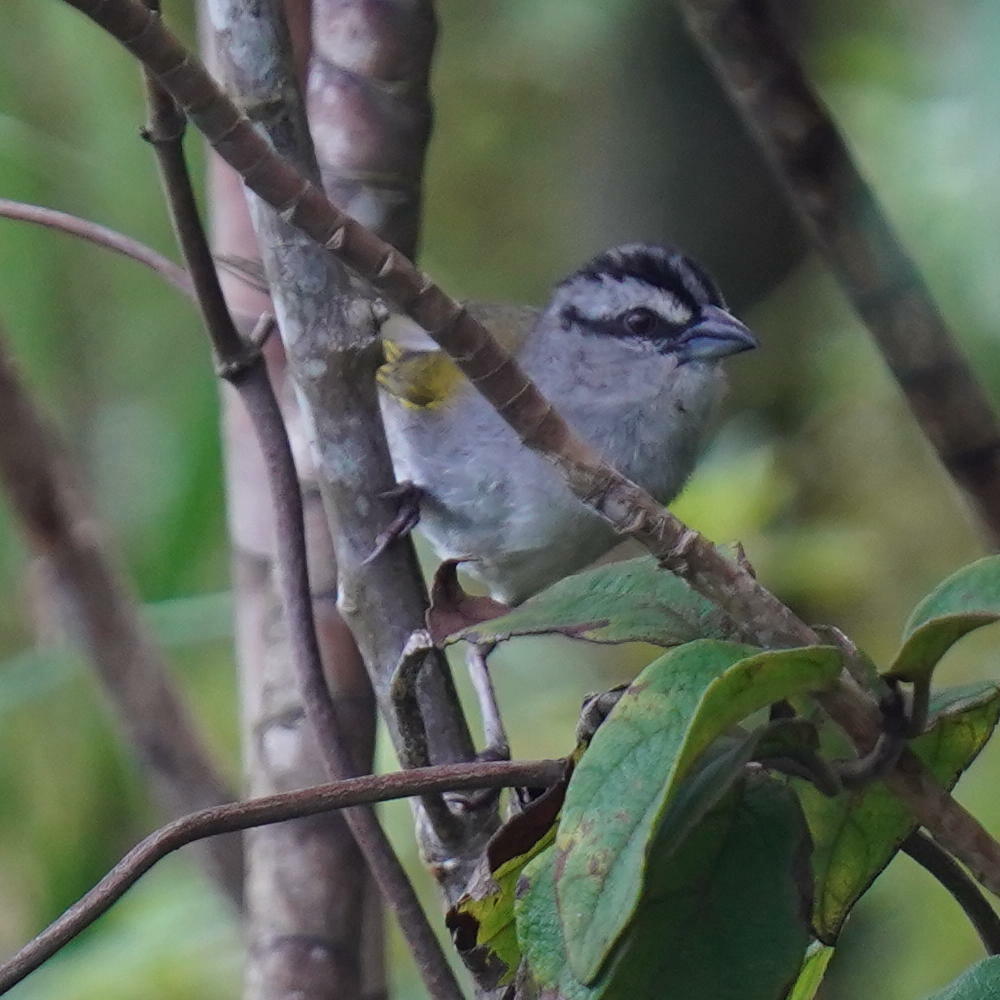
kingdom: Animalia
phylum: Chordata
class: Aves
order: Passeriformes
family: Passerellidae
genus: Arremonops
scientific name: Arremonops conirostris
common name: Black-striped sparrow
